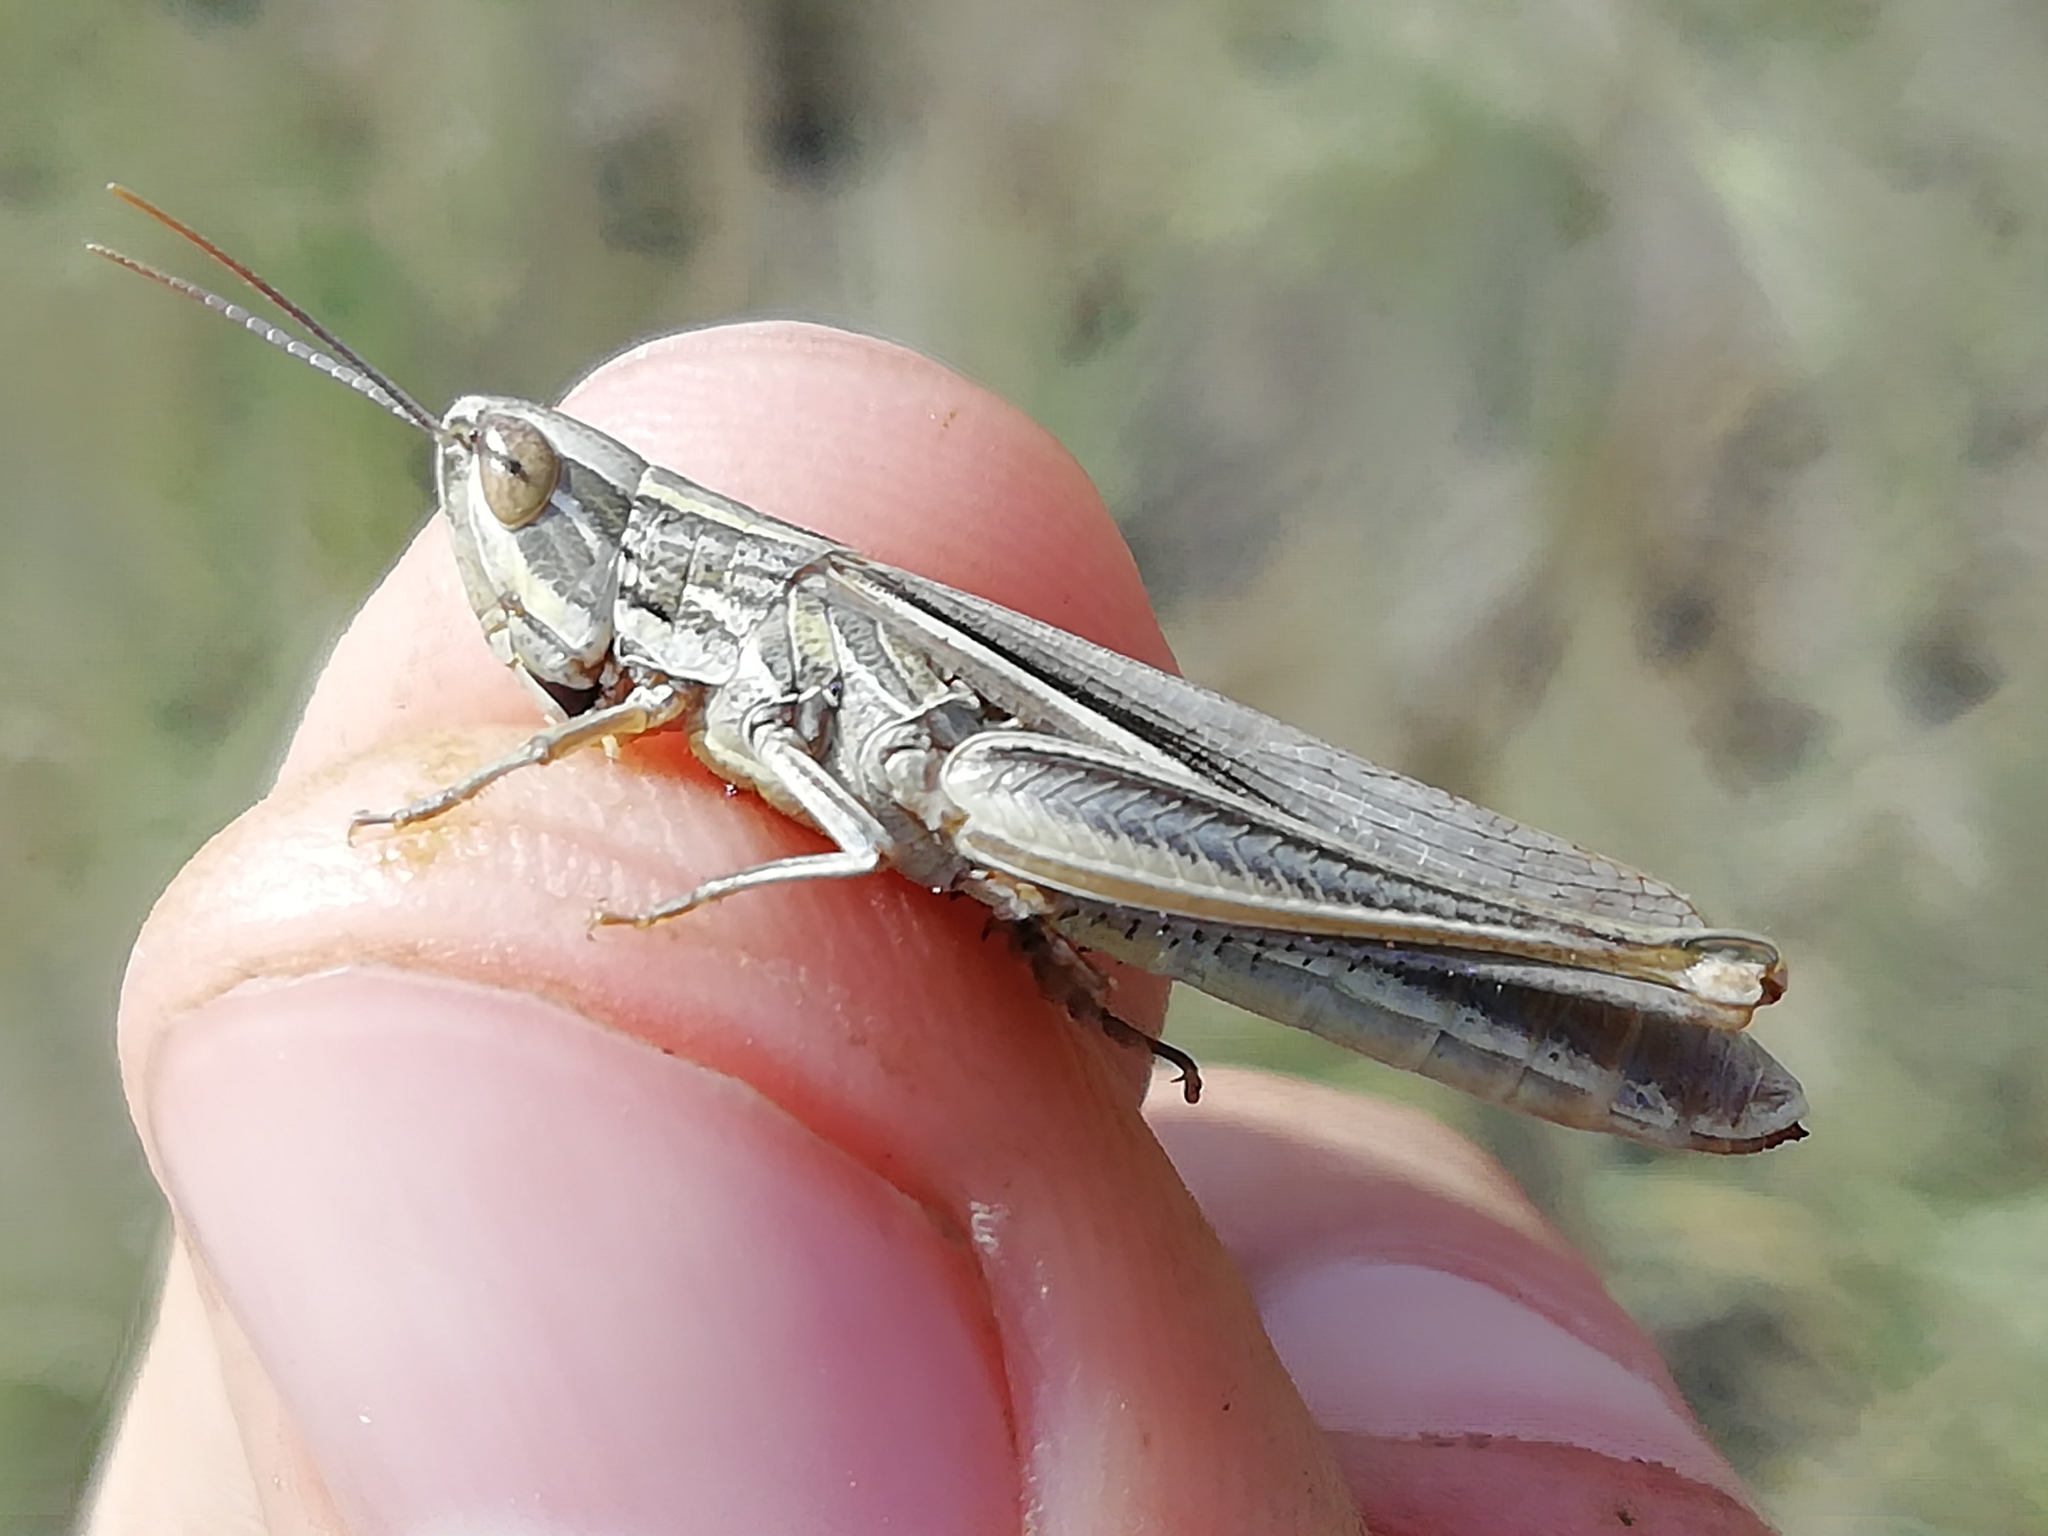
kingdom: Animalia
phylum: Arthropoda
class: Insecta
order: Orthoptera
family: Acrididae
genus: Euchorthippus
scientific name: Euchorthippus pulvinatus
